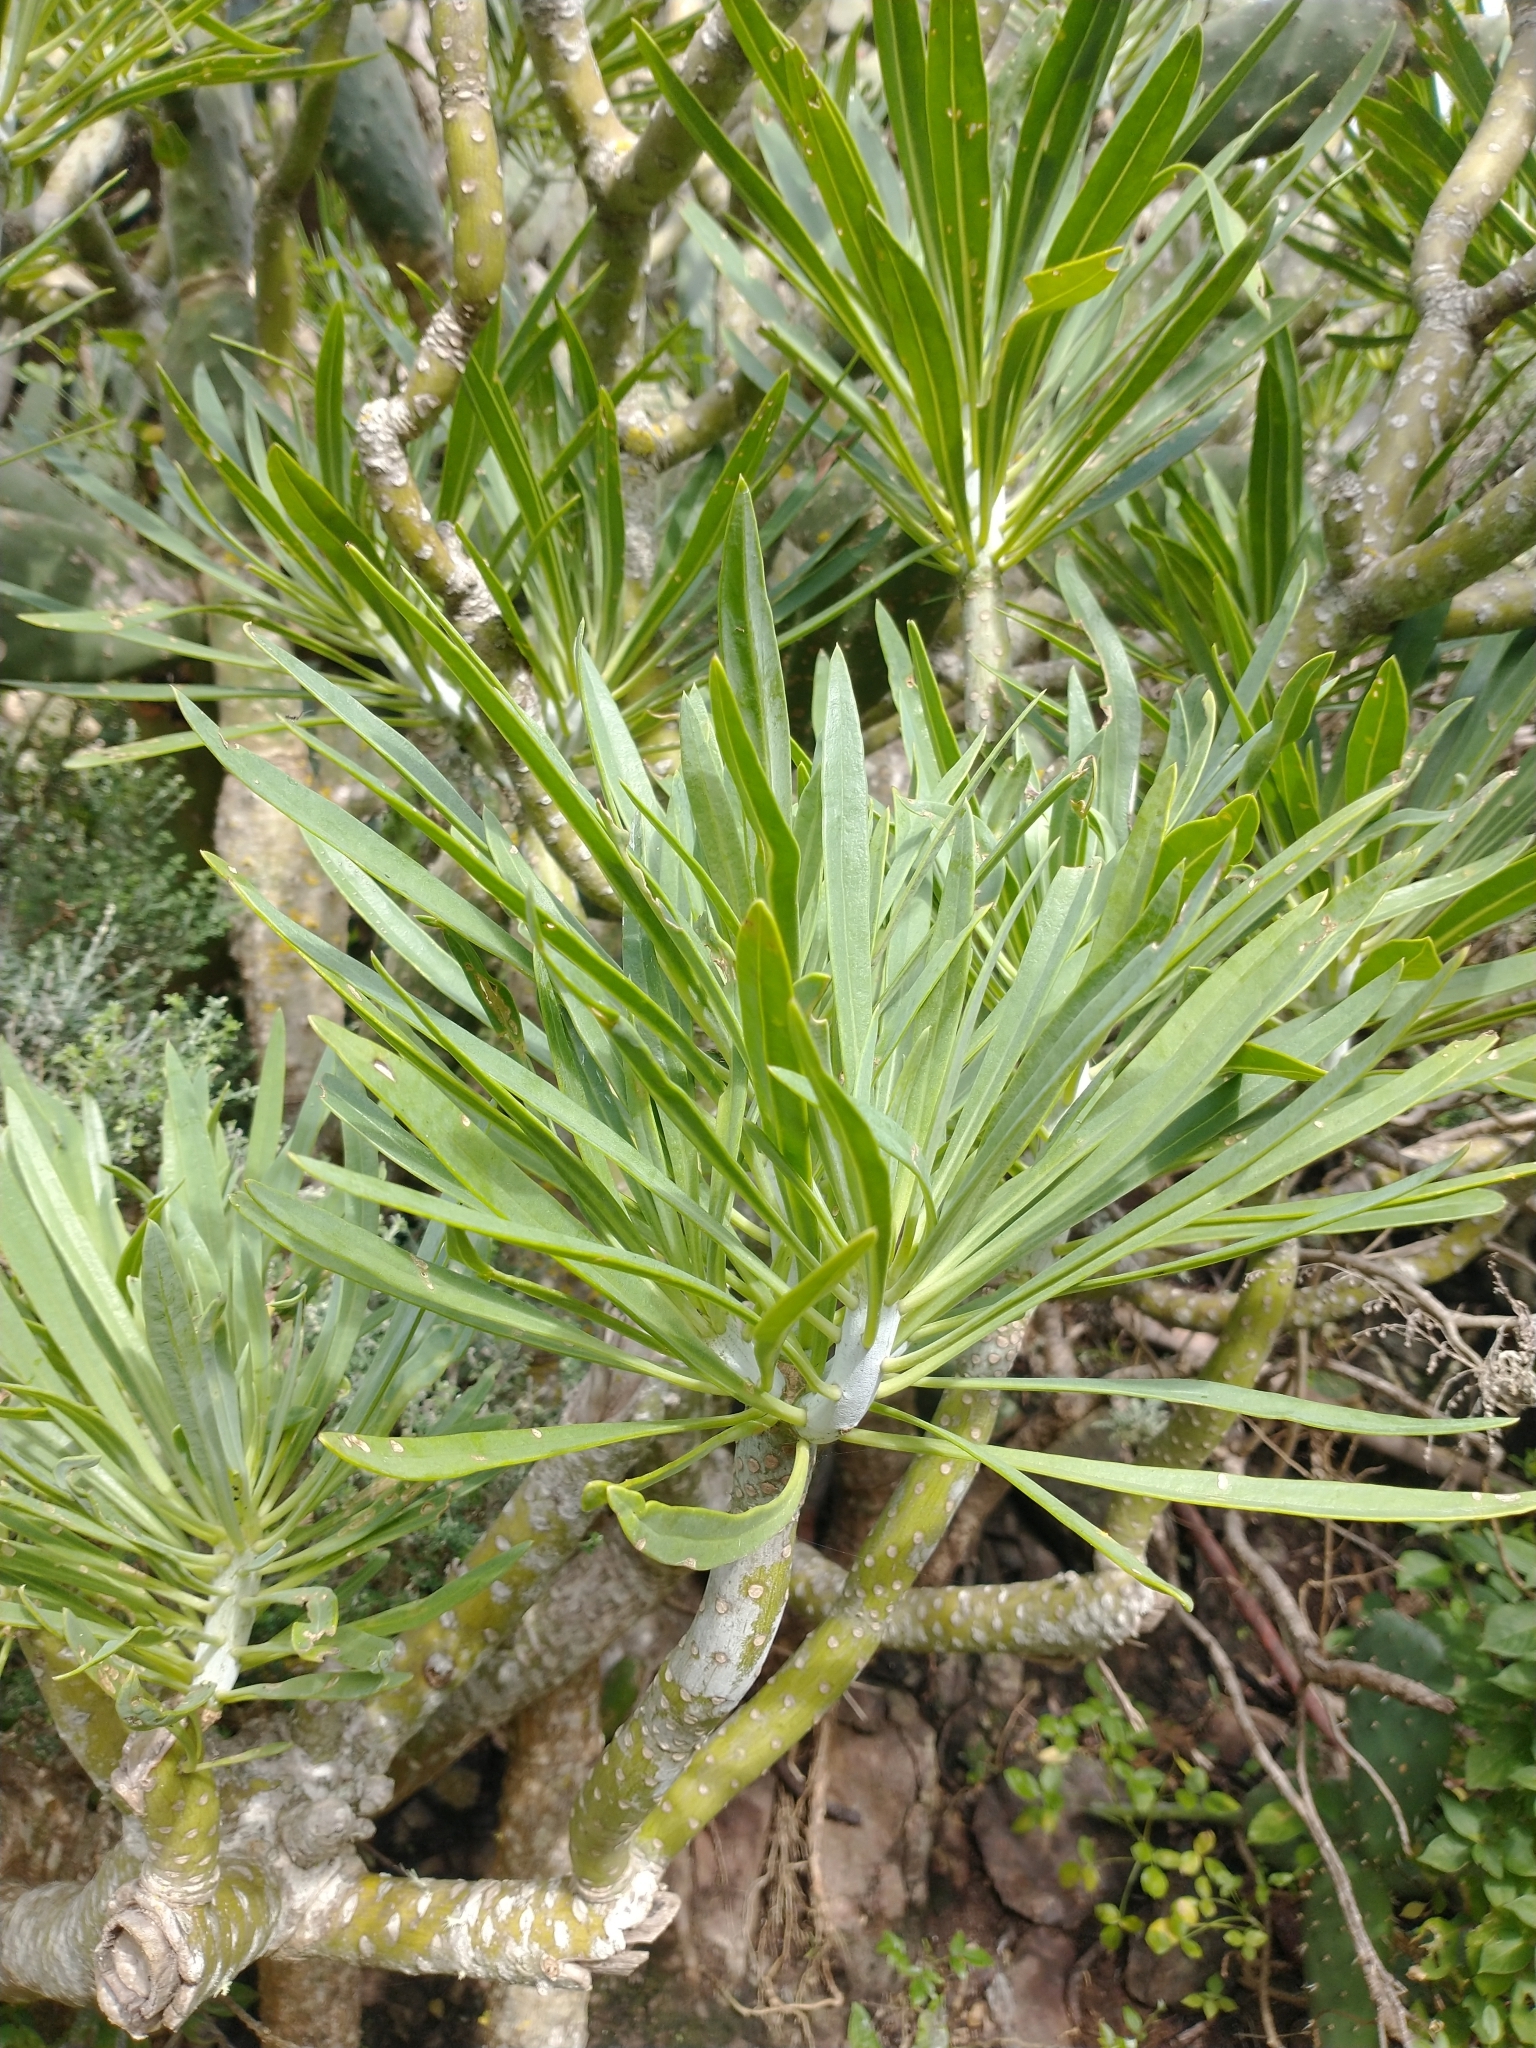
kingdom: Plantae
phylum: Tracheophyta
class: Magnoliopsida
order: Asterales
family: Asteraceae
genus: Kleinia
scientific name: Kleinia neriifolia
